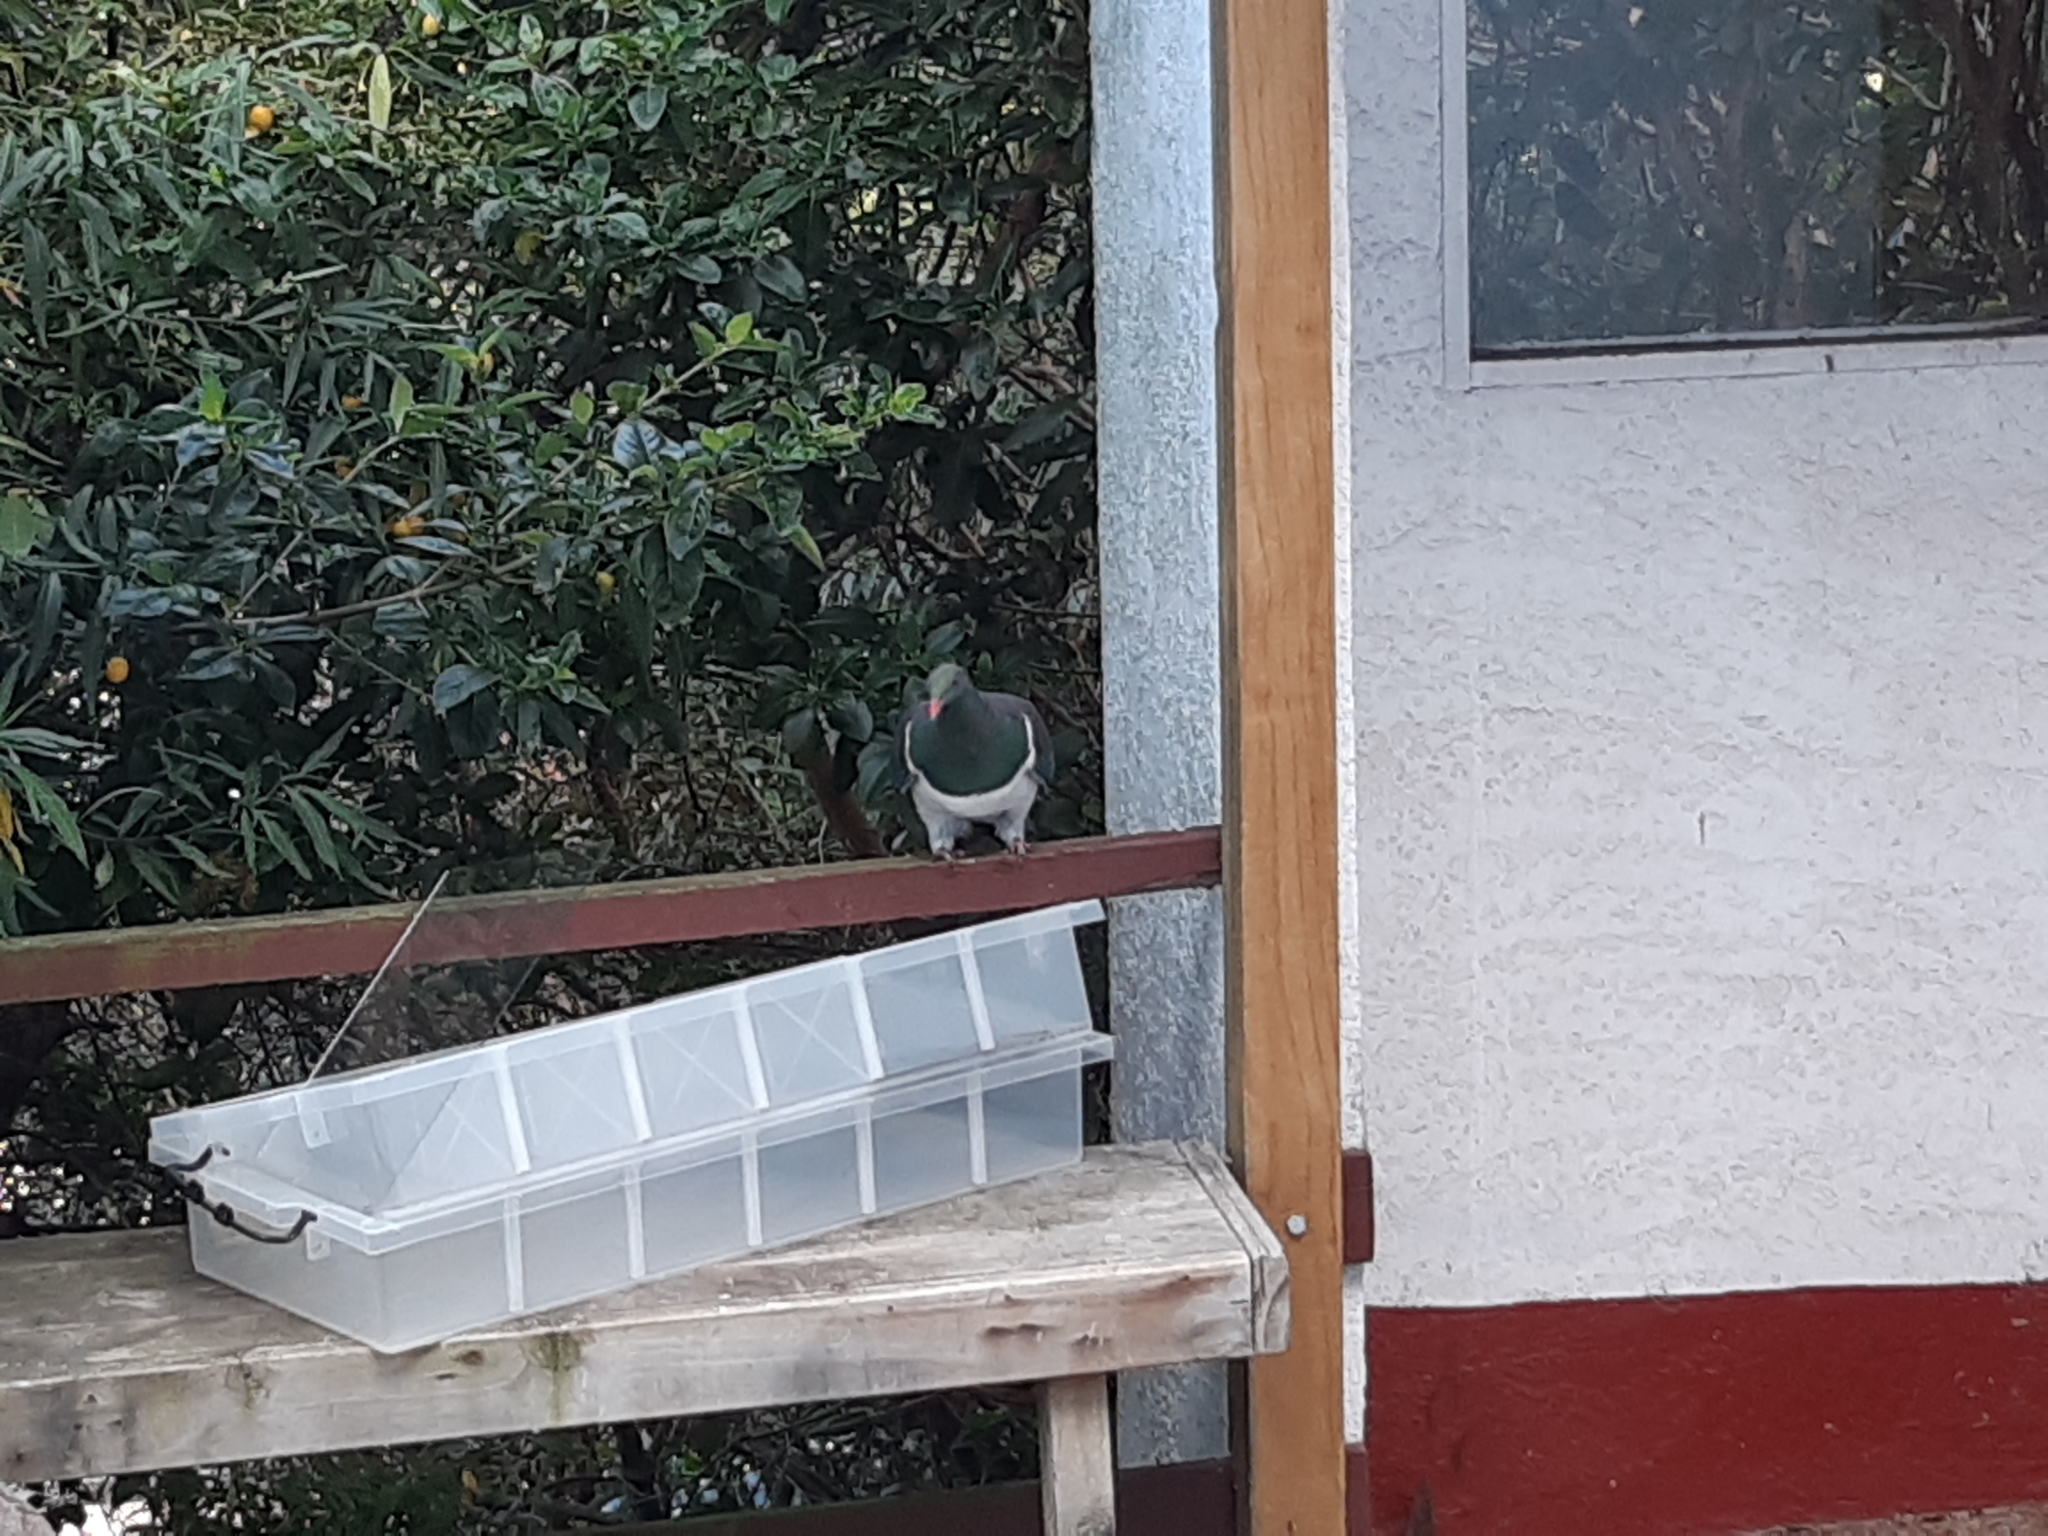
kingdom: Animalia
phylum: Chordata
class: Aves
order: Columbiformes
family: Columbidae
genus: Hemiphaga
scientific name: Hemiphaga novaeseelandiae
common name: New zealand pigeon
